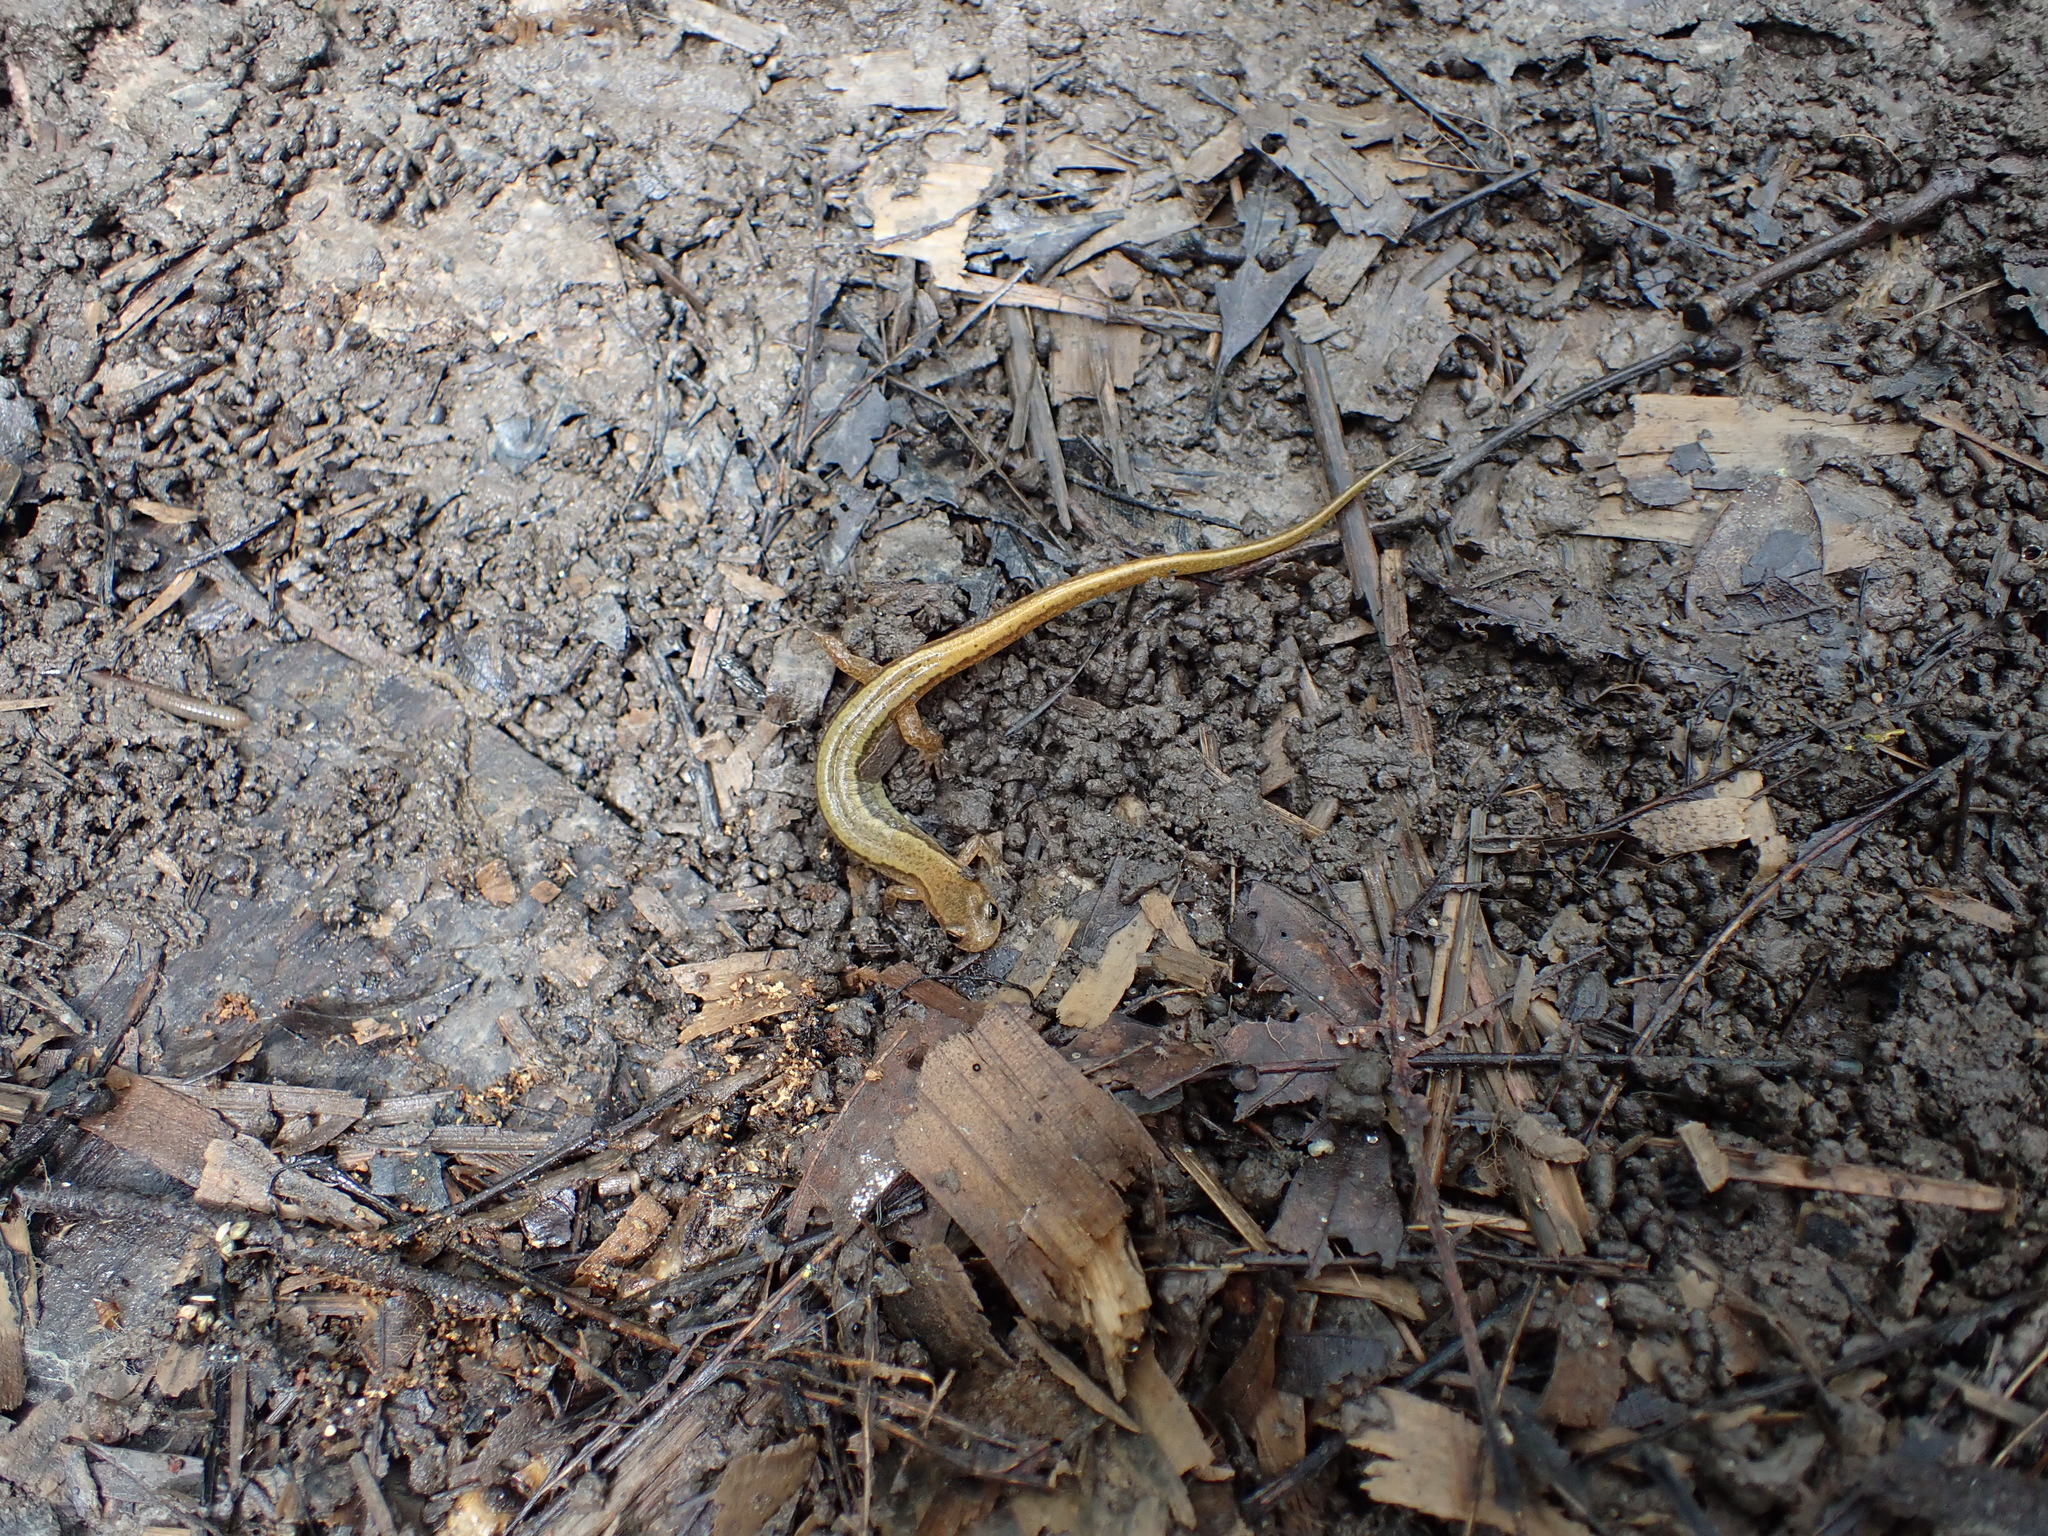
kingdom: Animalia
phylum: Chordata
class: Amphibia
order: Caudata
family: Plethodontidae
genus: Eurycea
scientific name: Eurycea cirrigera
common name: Southern two-lined salamander
